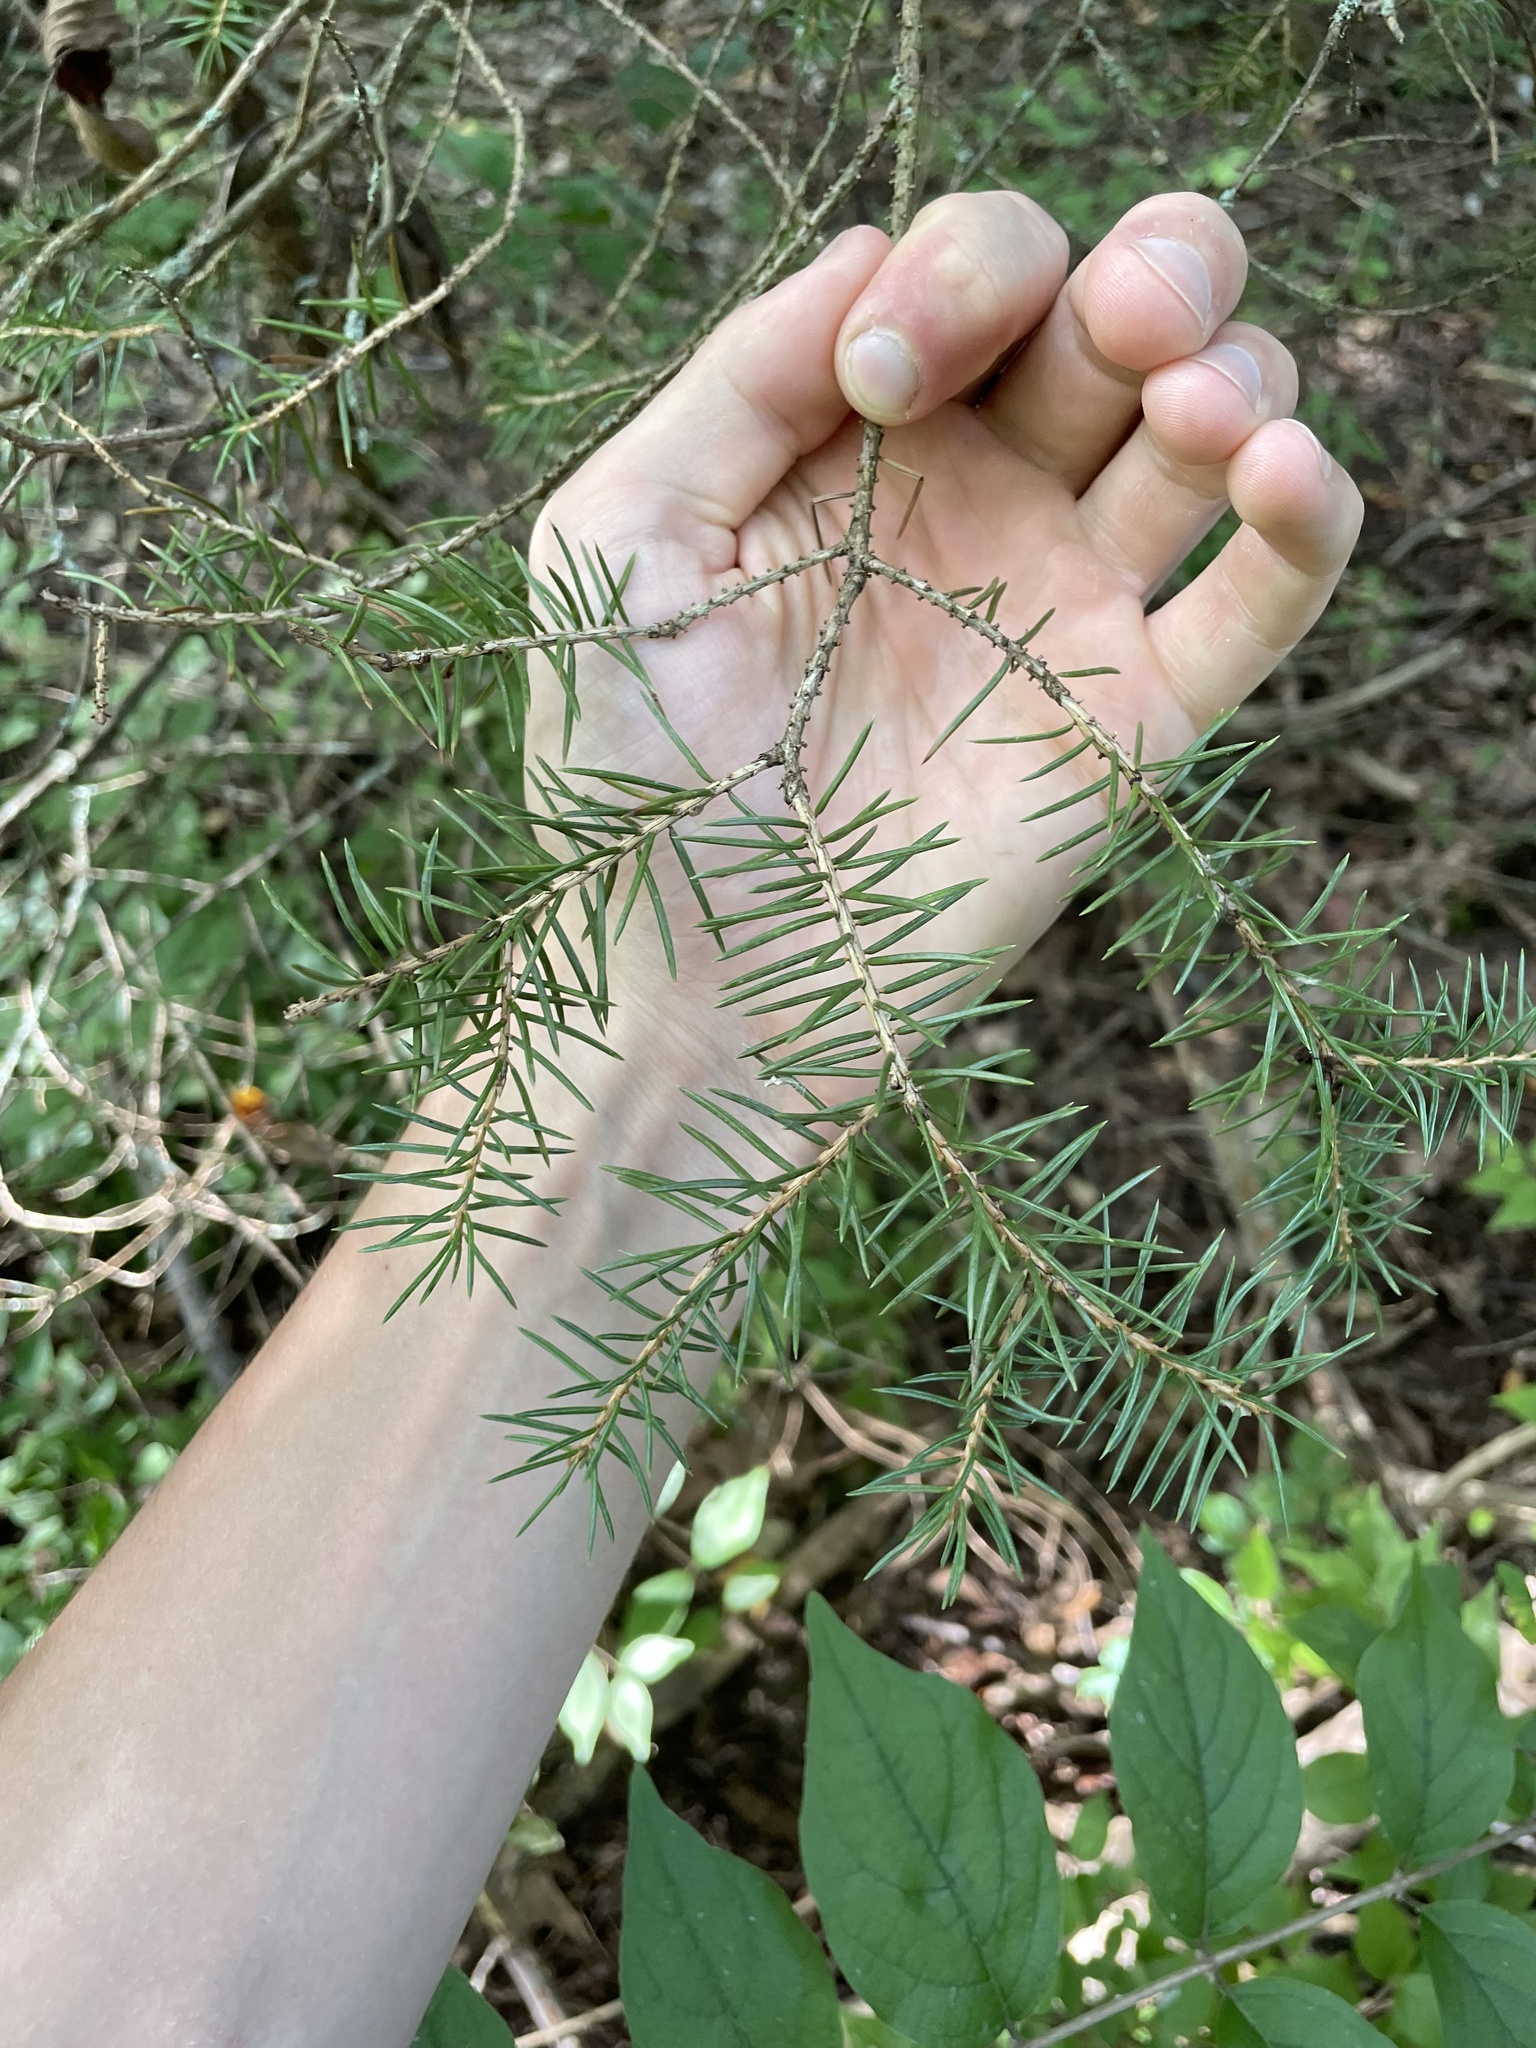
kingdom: Plantae
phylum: Tracheophyta
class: Pinopsida
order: Pinales
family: Pinaceae
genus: Picea
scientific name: Picea glauca
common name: White spruce
